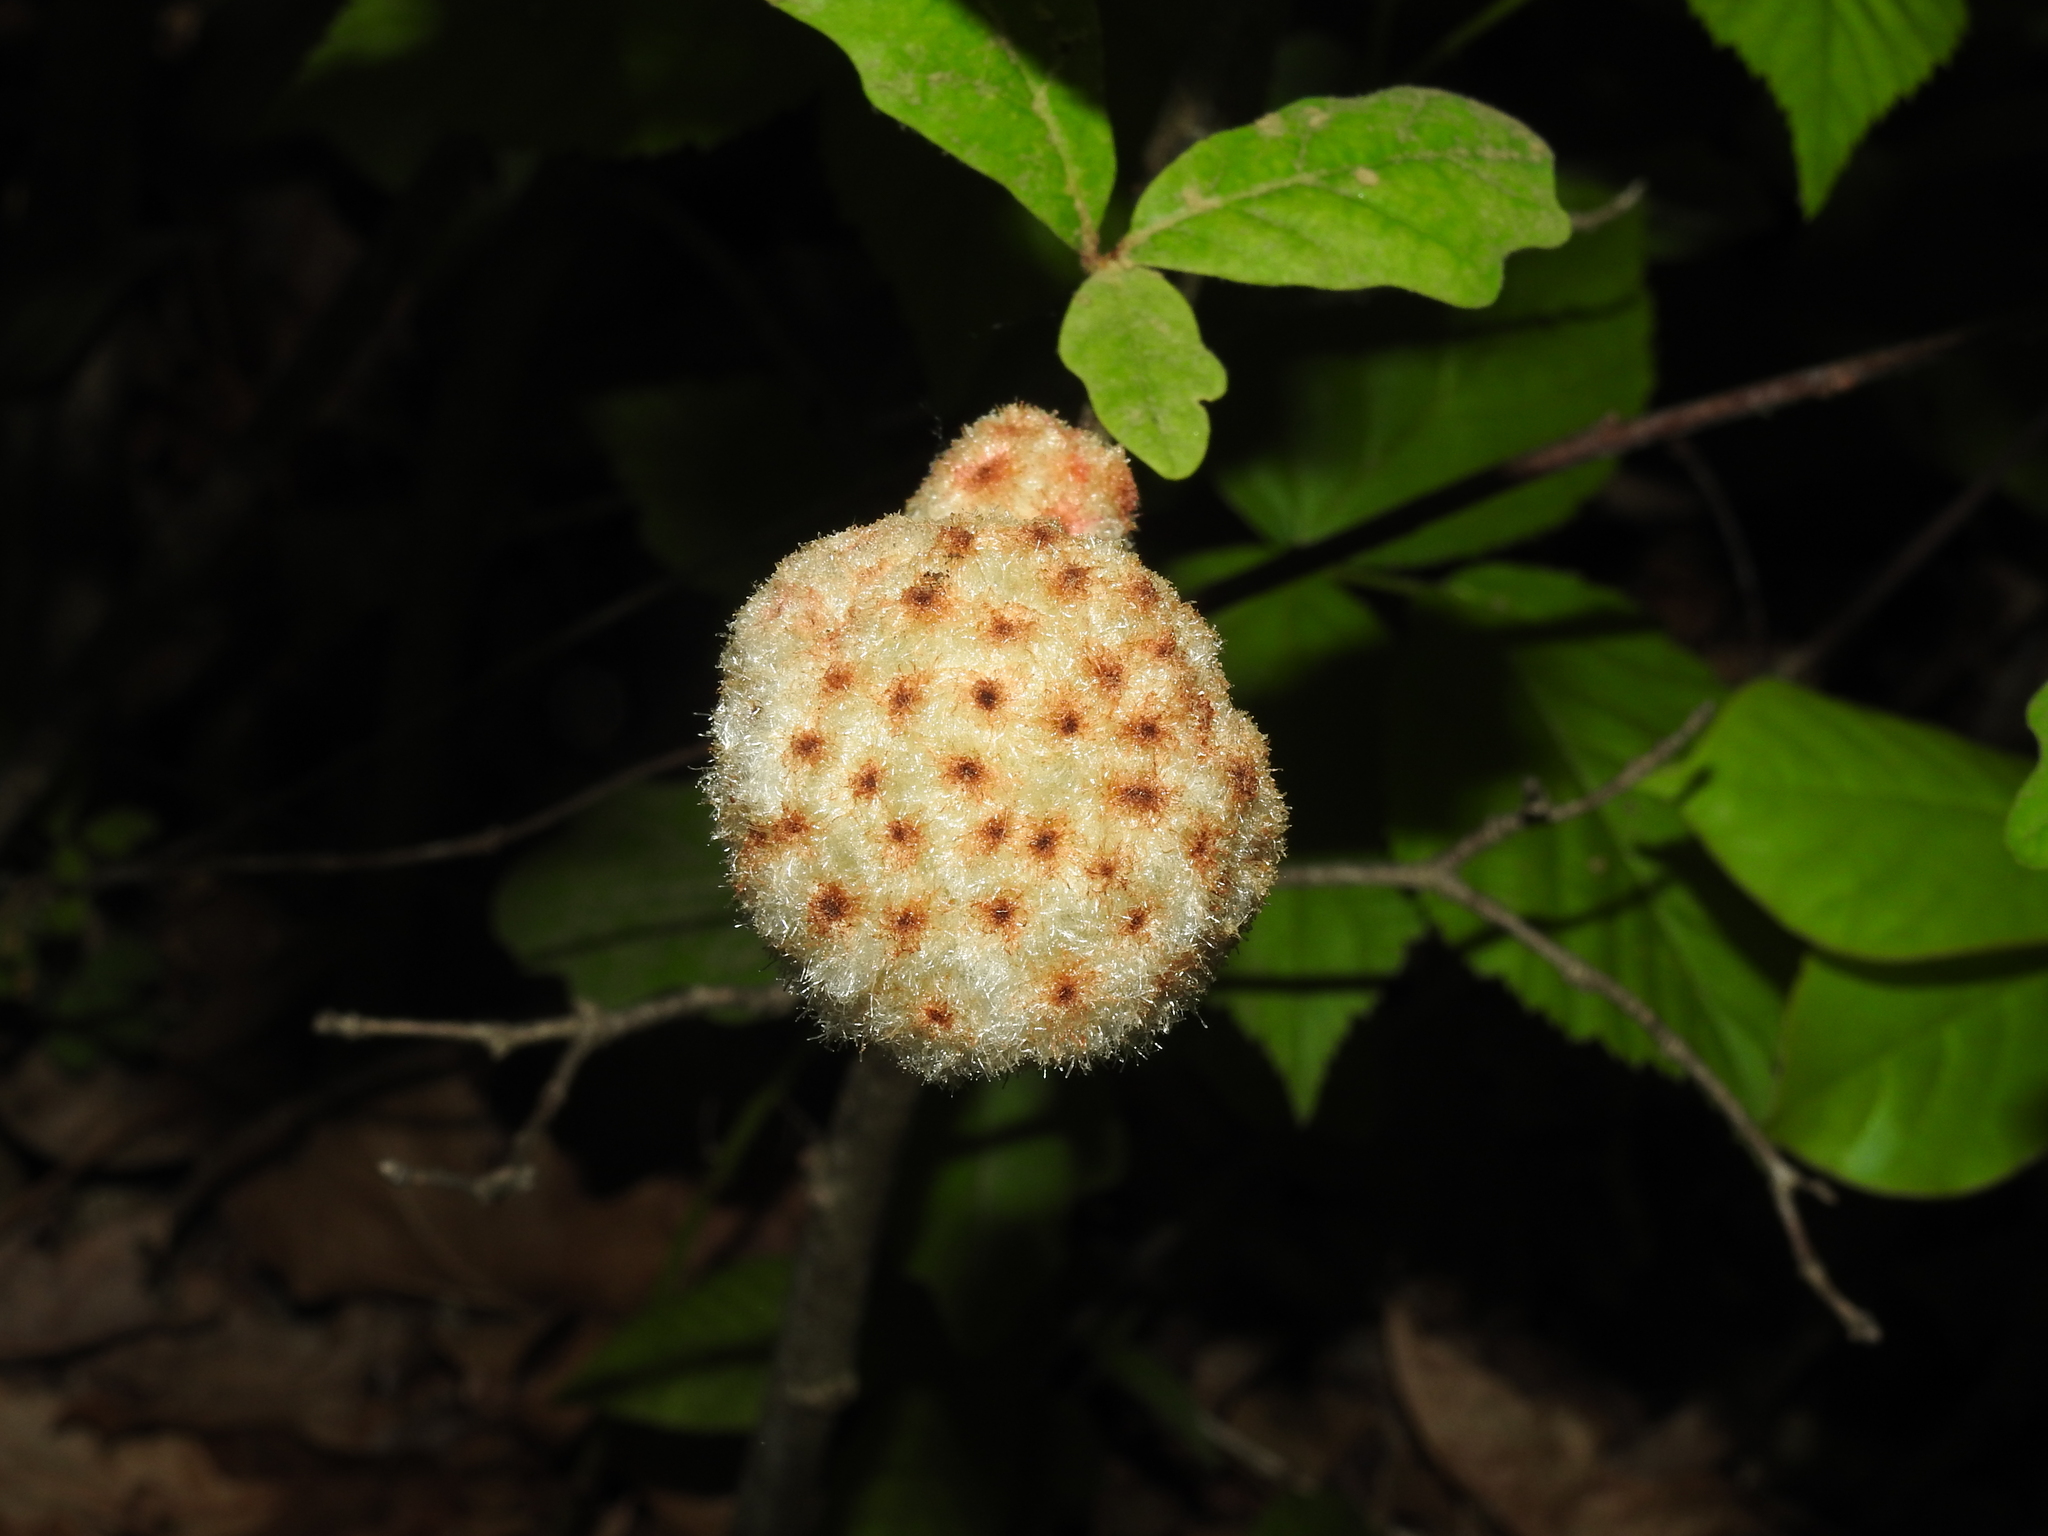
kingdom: Animalia
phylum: Arthropoda
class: Insecta
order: Hymenoptera
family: Cynipidae
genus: Callirhytis
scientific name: Callirhytis
